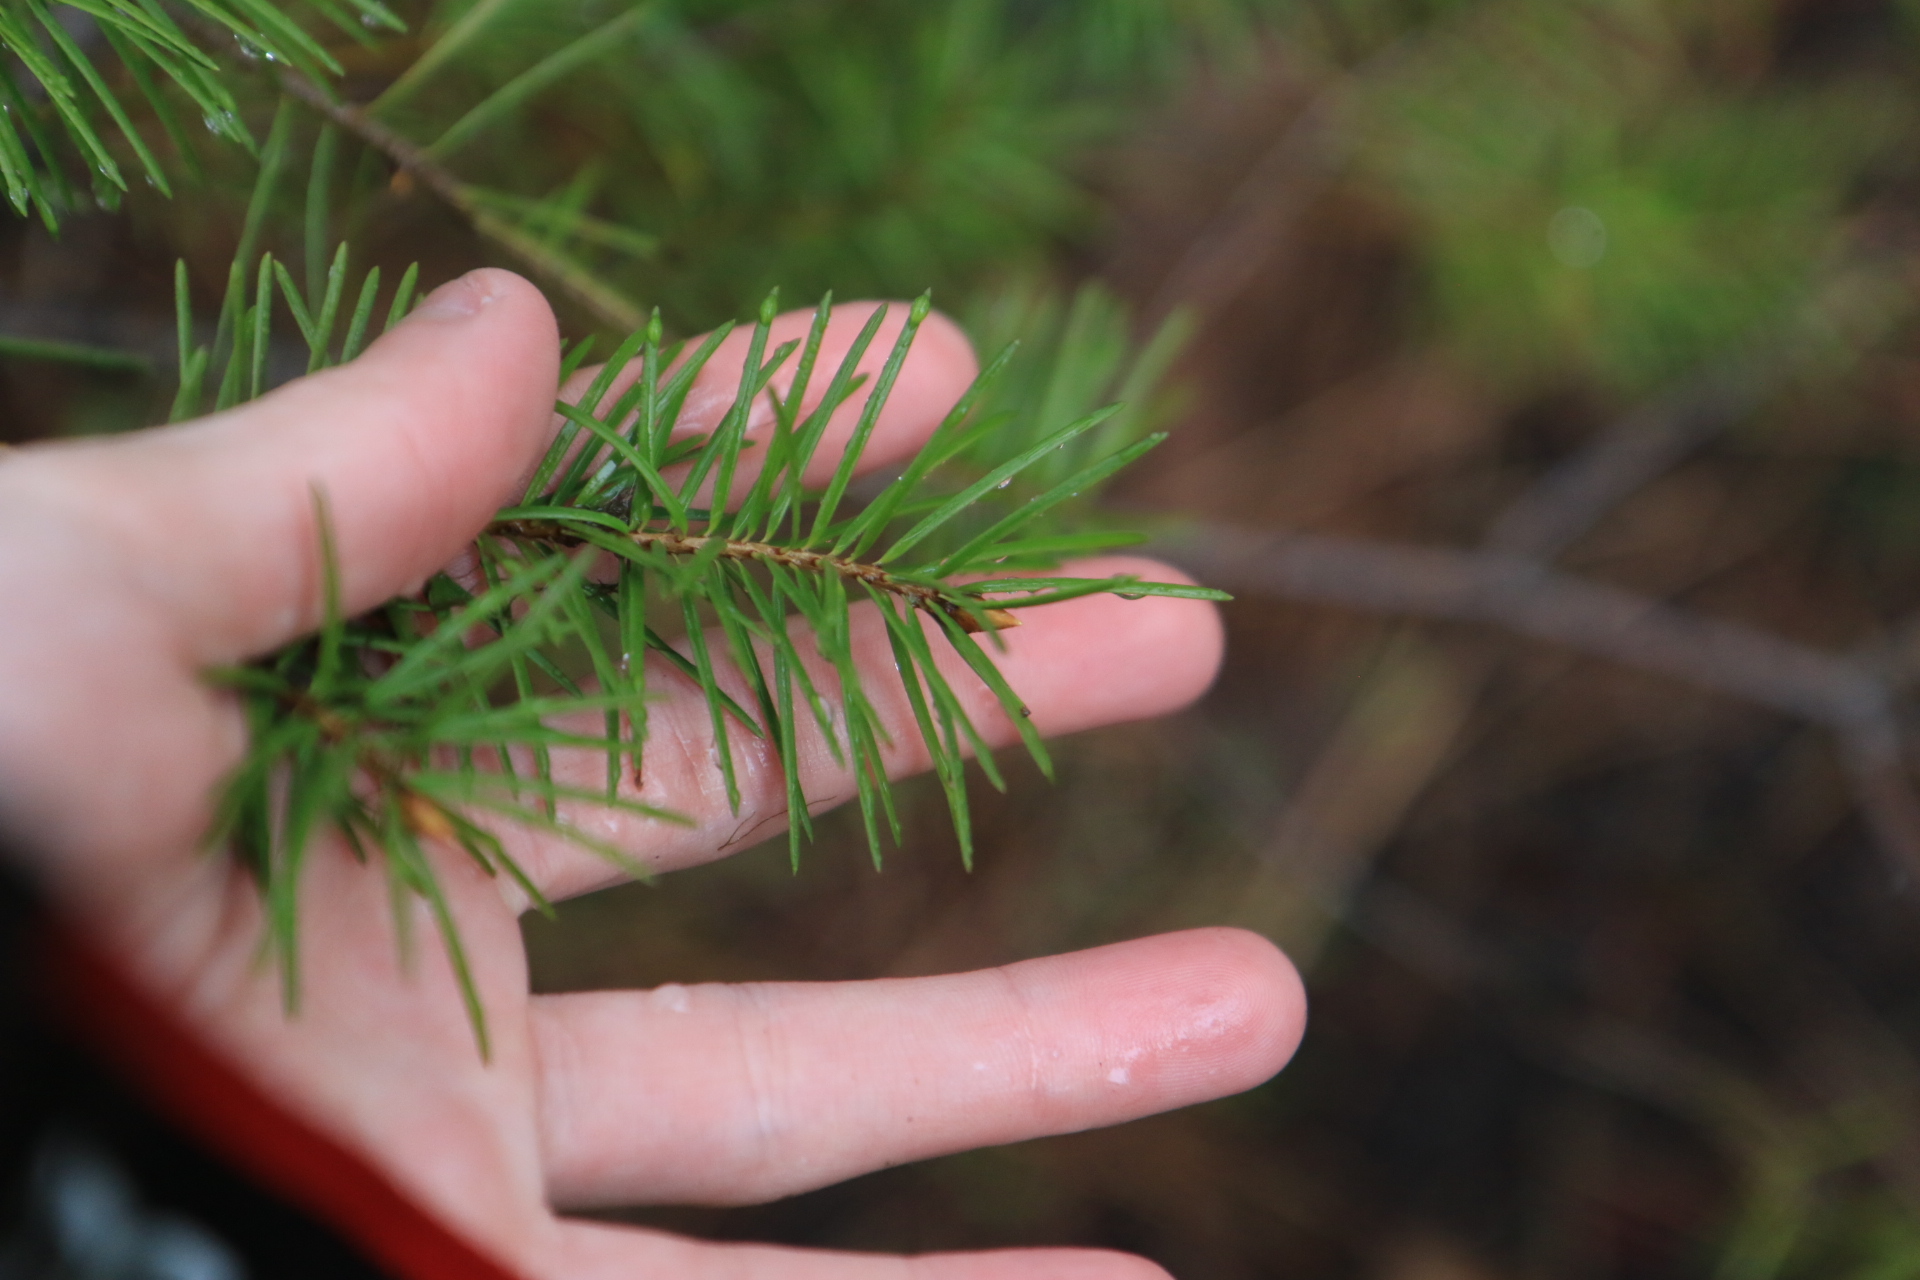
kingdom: Plantae
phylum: Tracheophyta
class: Pinopsida
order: Pinales
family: Pinaceae
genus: Pseudotsuga
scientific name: Pseudotsuga menziesii
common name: Douglas fir
